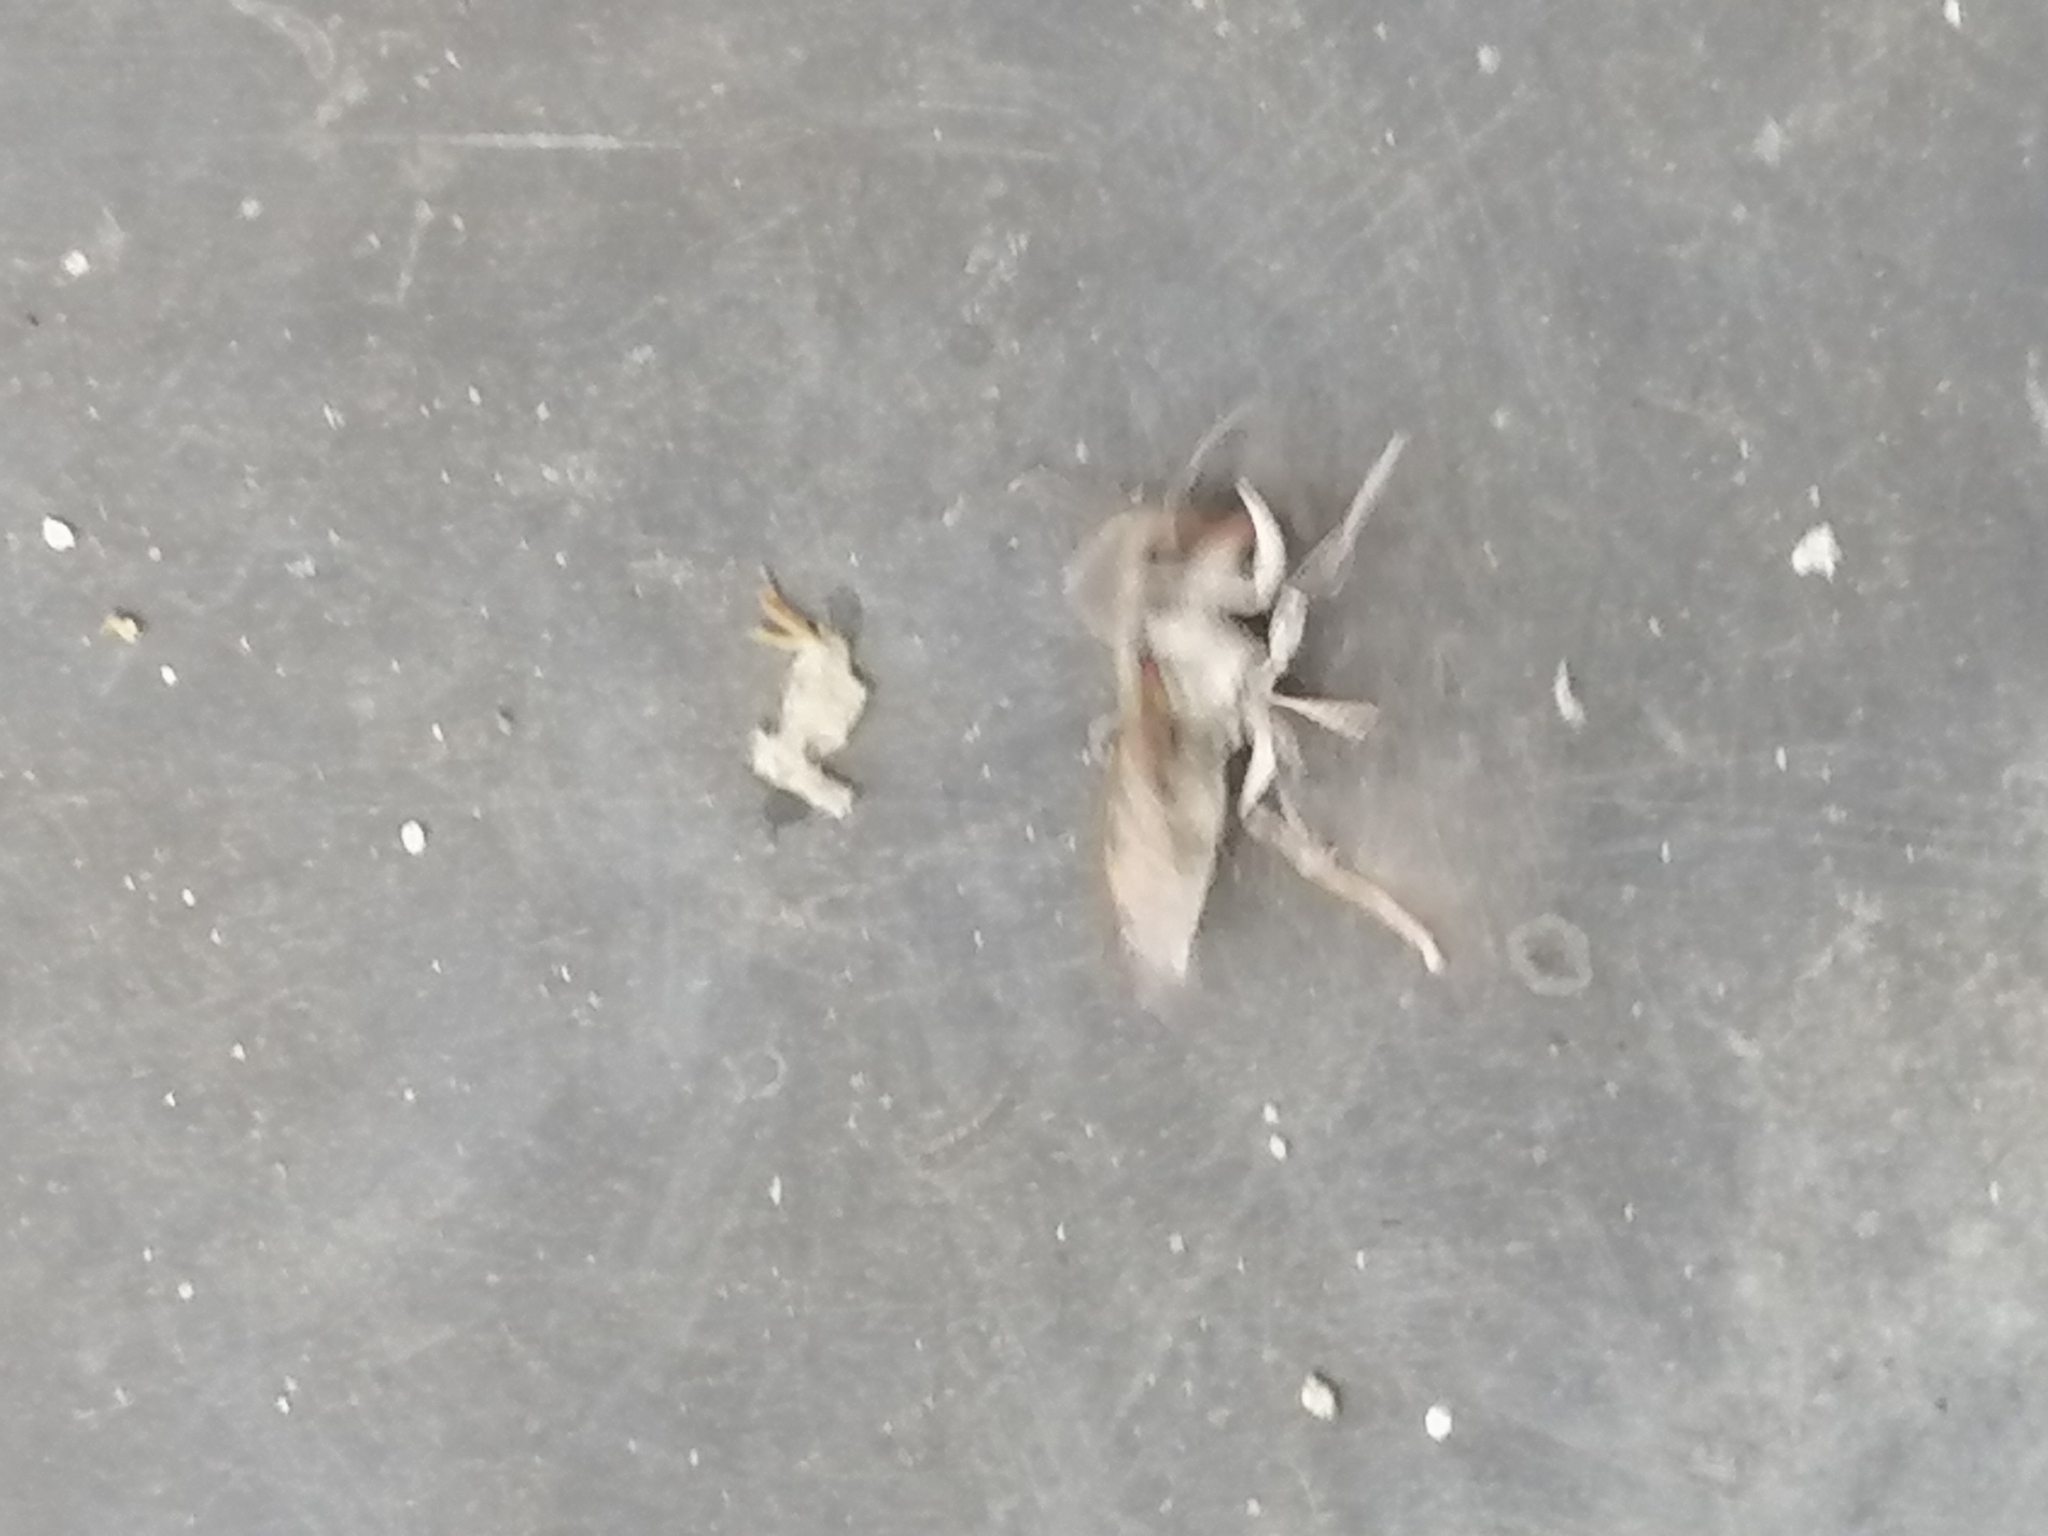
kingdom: Animalia
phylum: Arthropoda
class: Insecta
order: Hymenoptera
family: Vespidae
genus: Vespa
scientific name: Vespa velutina
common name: Asian hornet
